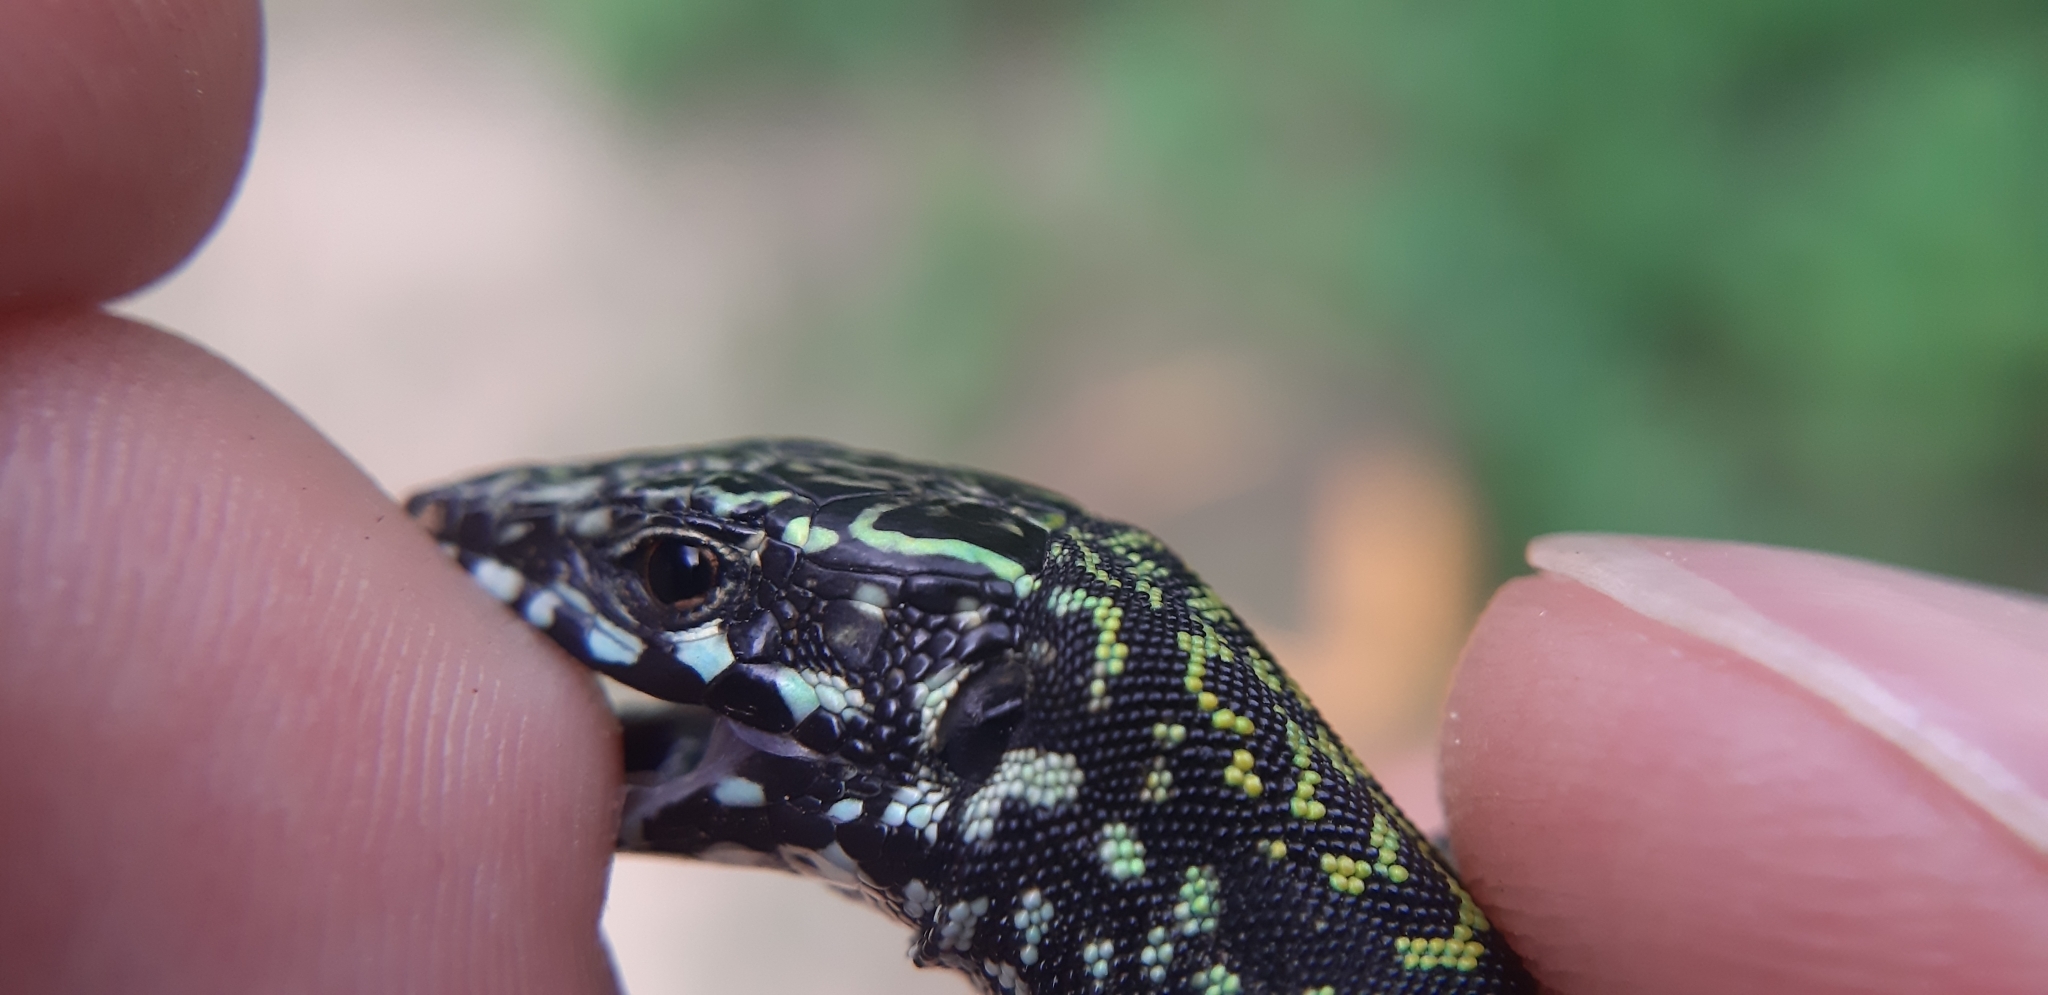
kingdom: Animalia
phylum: Chordata
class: Squamata
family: Lacertidae
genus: Podarcis
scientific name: Podarcis muralis
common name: Common wall lizard
